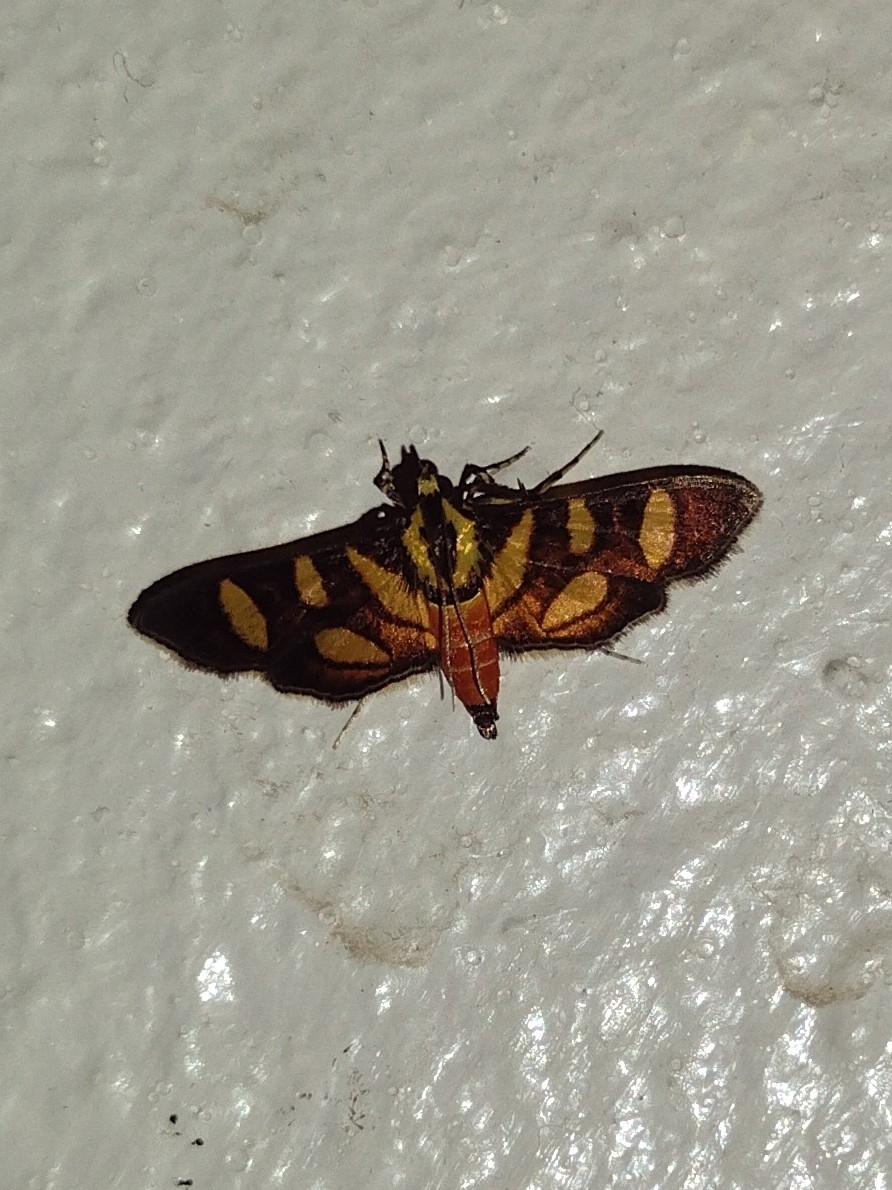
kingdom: Animalia
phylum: Arthropoda
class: Insecta
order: Lepidoptera
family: Crambidae
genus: Syngamia
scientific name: Syngamia florella
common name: Orange-spotted flower moth
